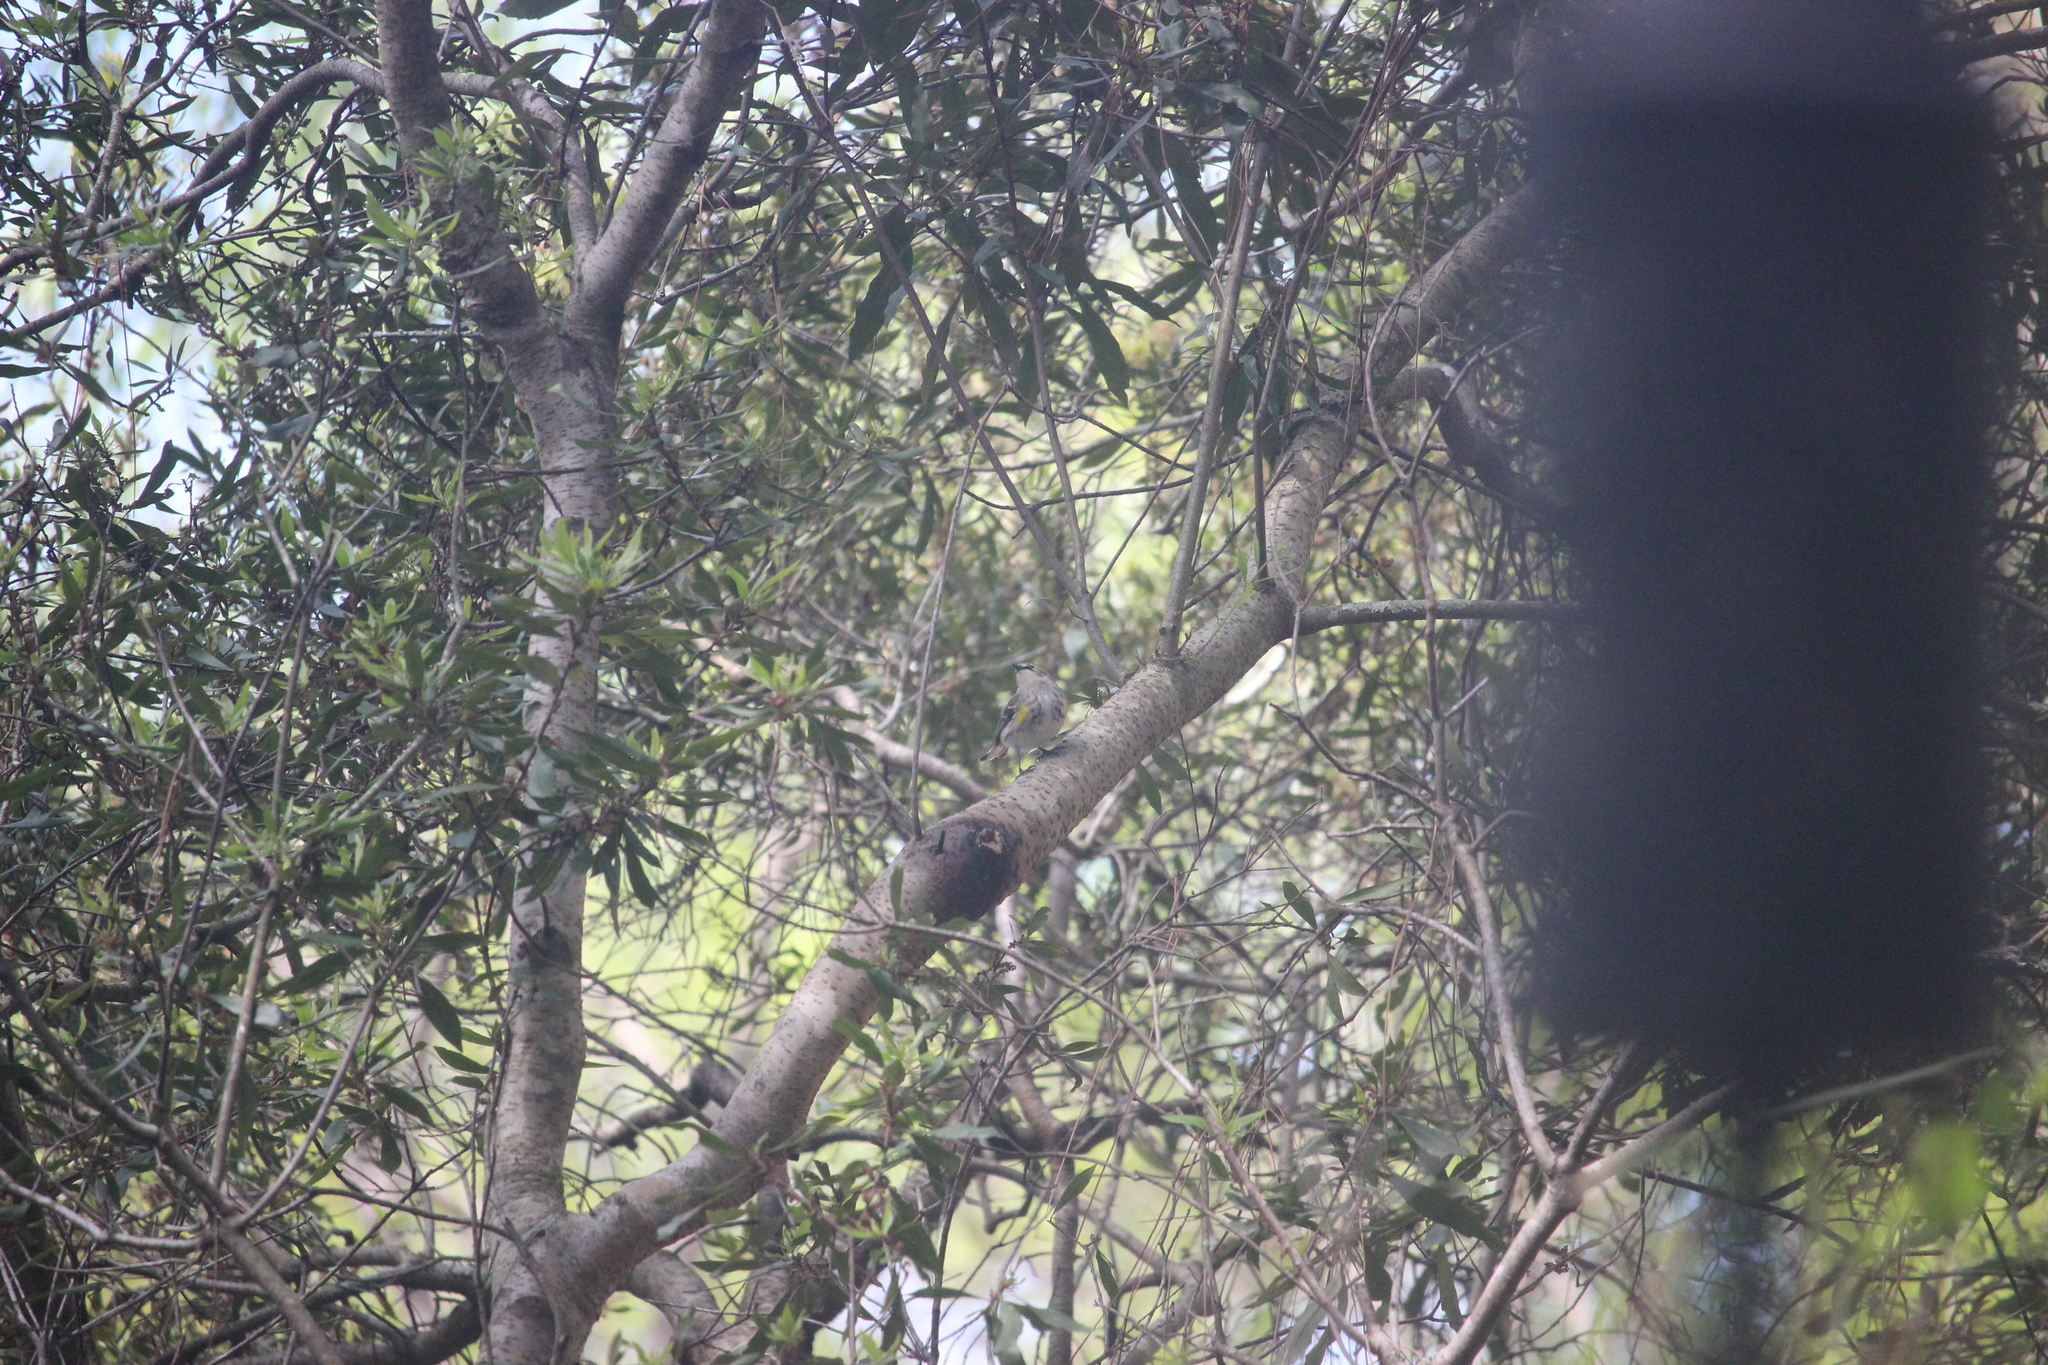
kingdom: Animalia
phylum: Chordata
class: Aves
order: Passeriformes
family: Parulidae
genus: Setophaga
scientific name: Setophaga coronata
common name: Myrtle warbler
